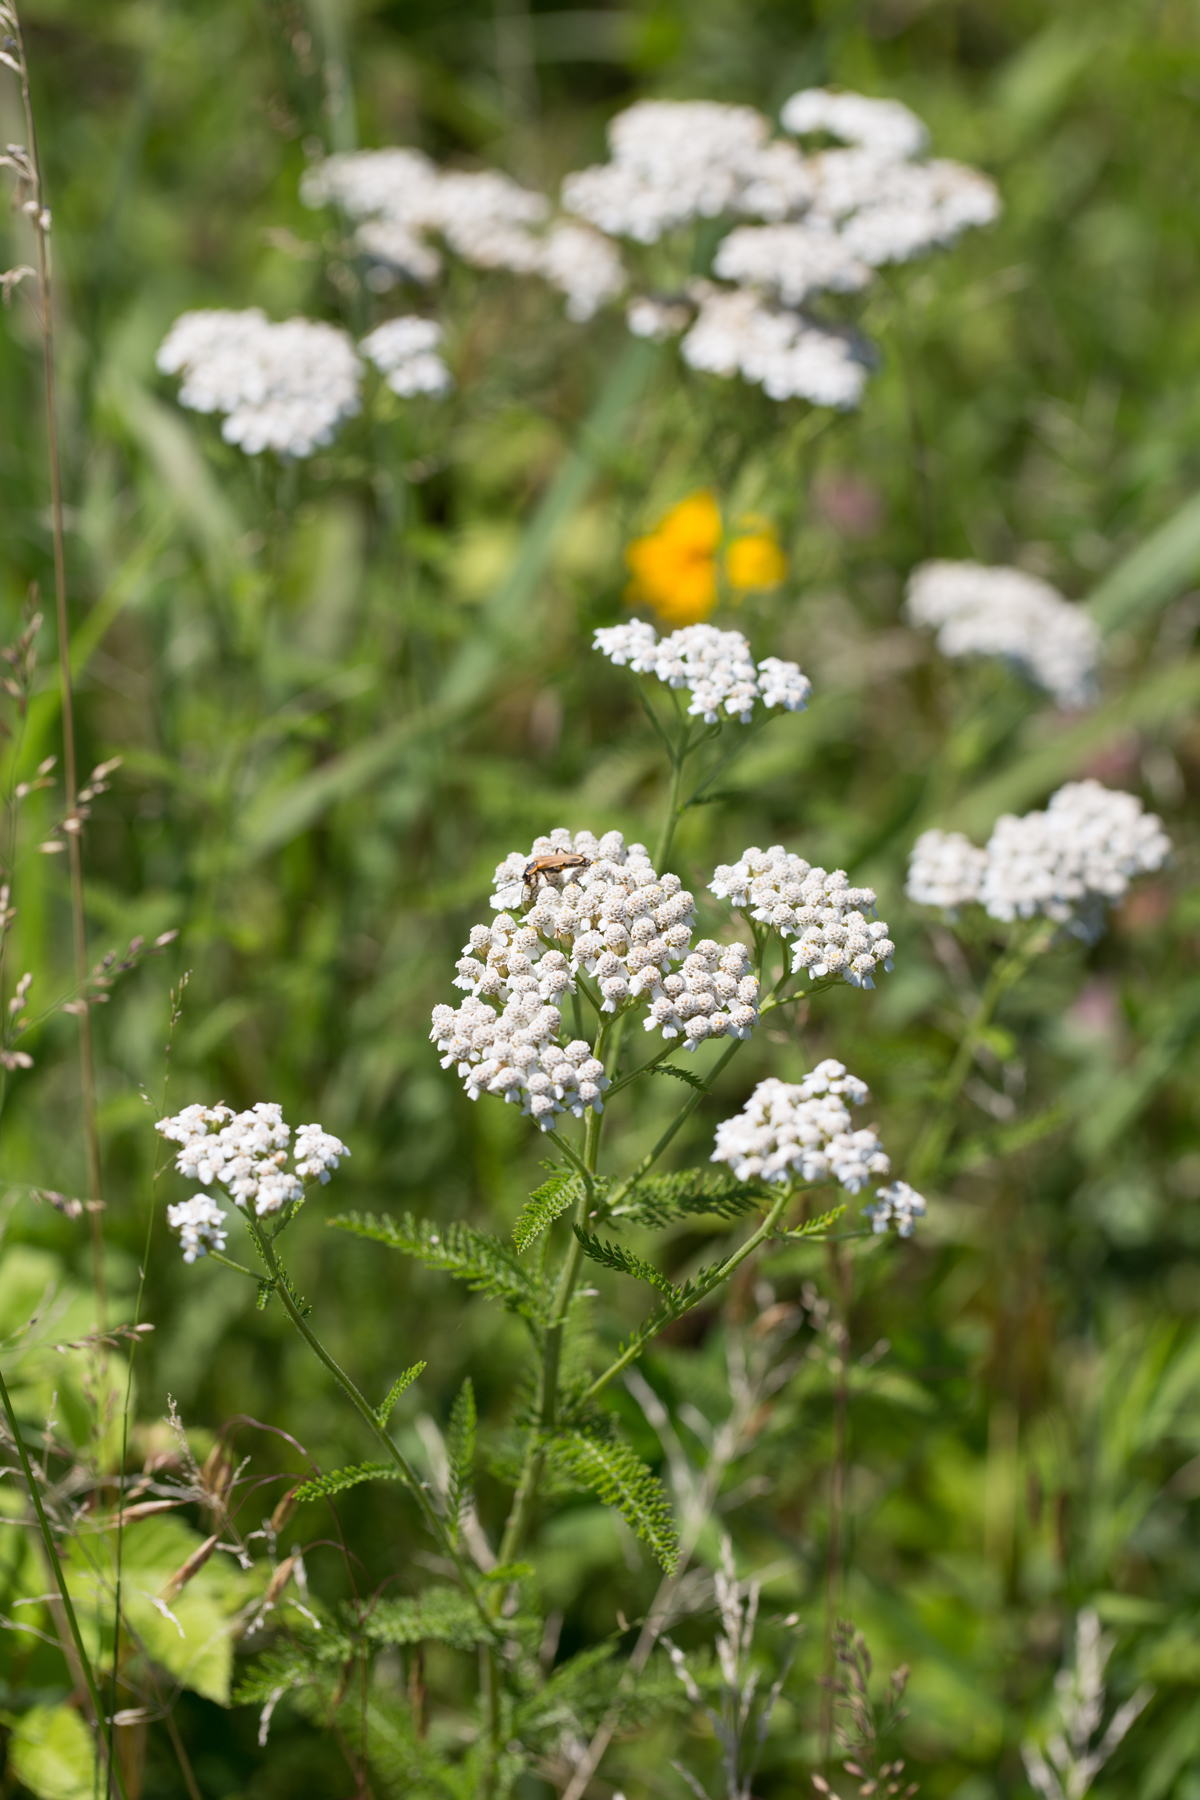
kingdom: Plantae
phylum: Tracheophyta
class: Magnoliopsida
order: Asterales
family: Asteraceae
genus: Achillea
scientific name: Achillea millefolium
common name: Yarrow
